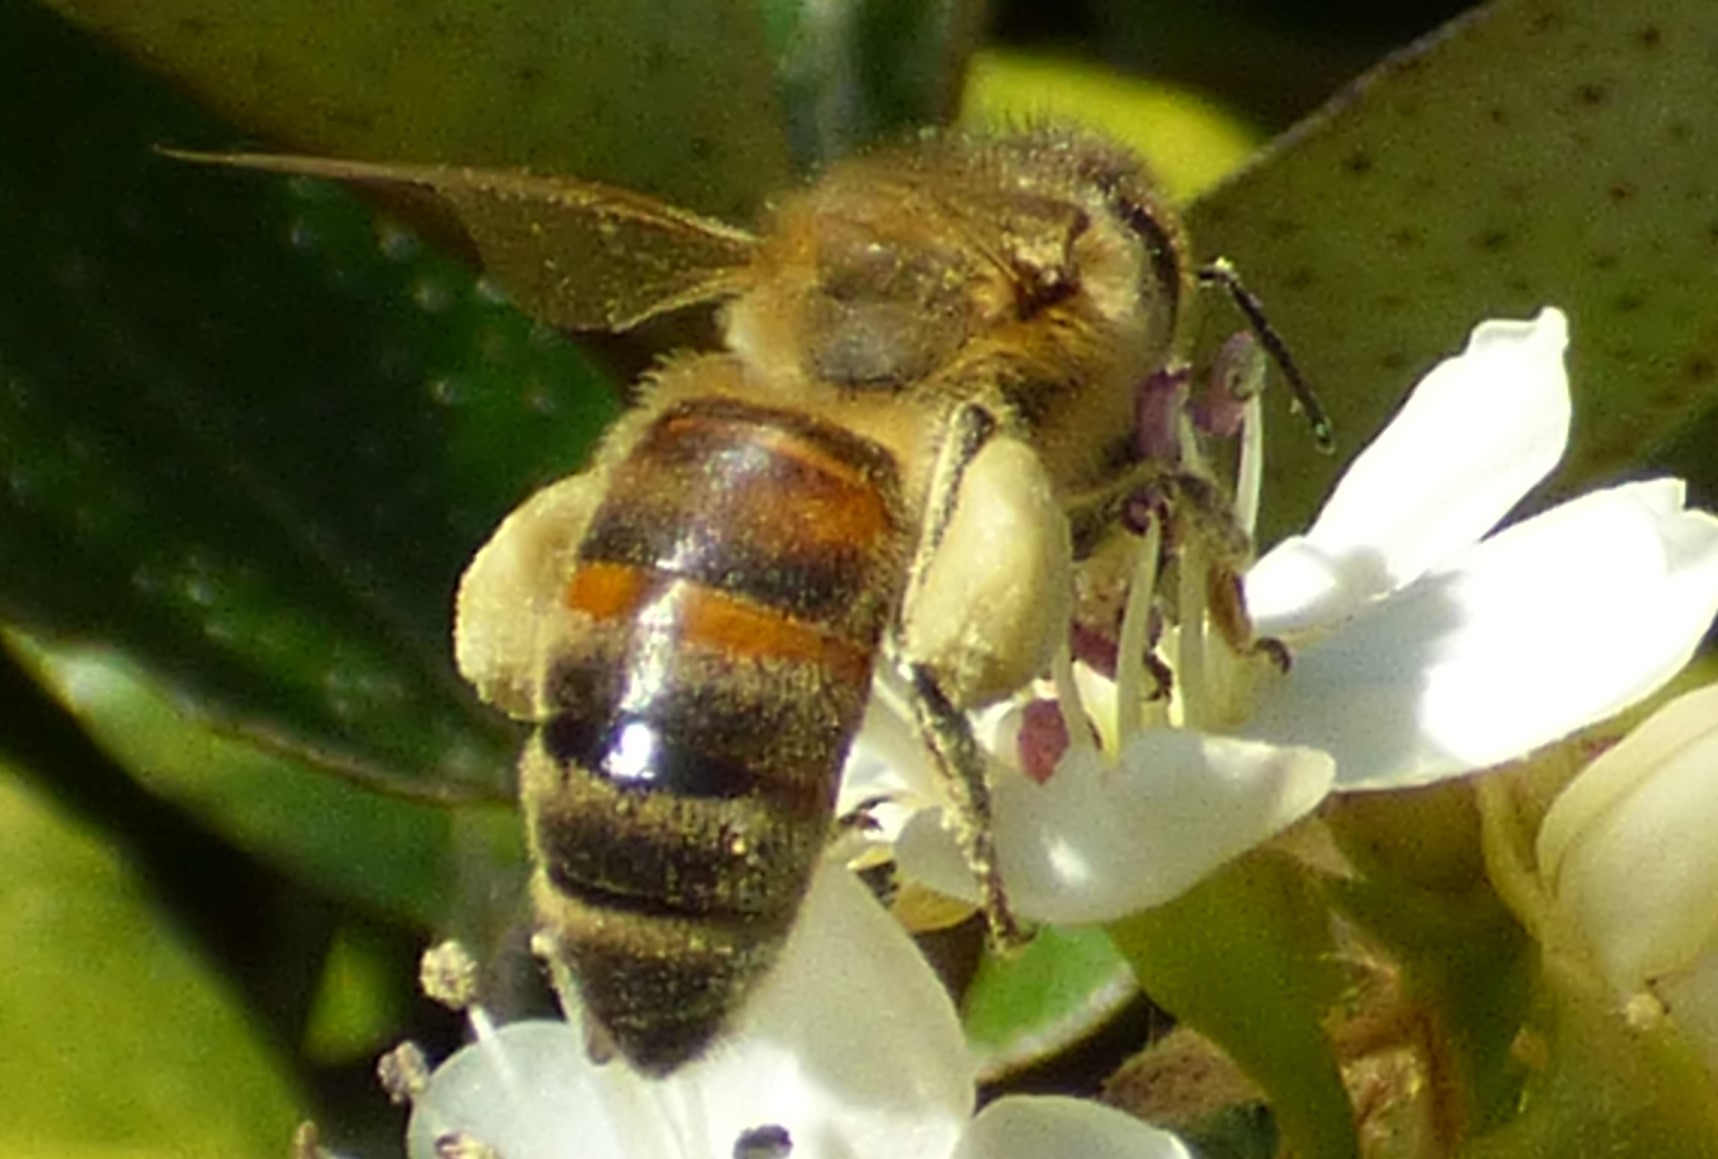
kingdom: Animalia
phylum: Arthropoda
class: Insecta
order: Hymenoptera
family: Apidae
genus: Apis
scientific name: Apis mellifera
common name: Honey bee
